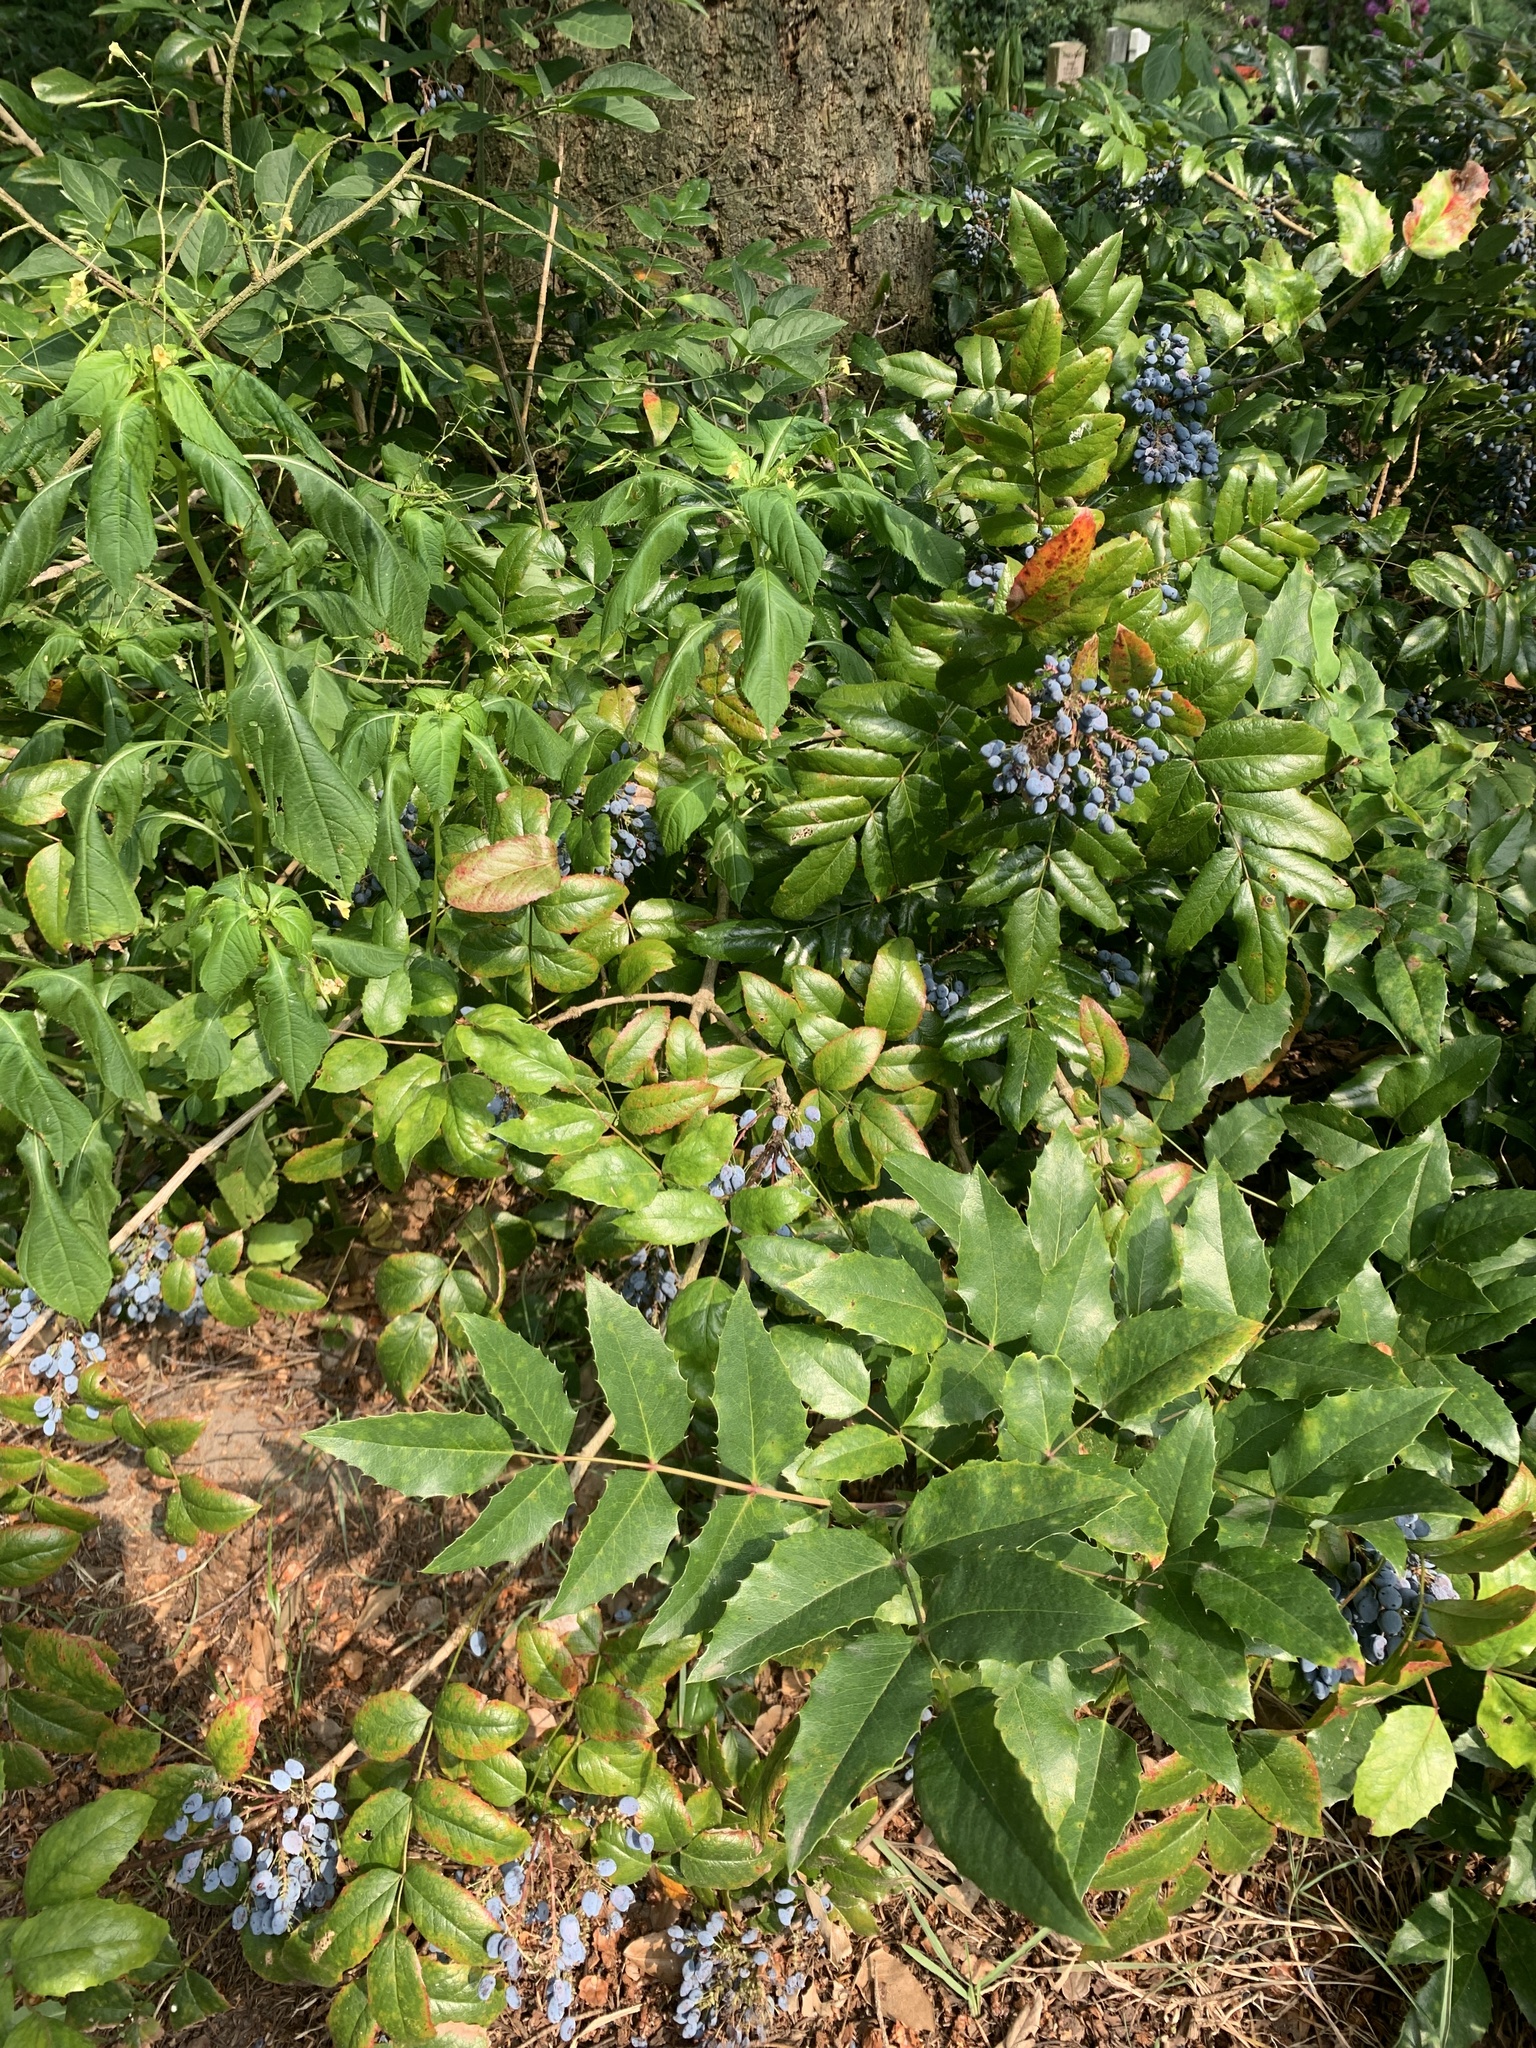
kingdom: Plantae
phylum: Tracheophyta
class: Magnoliopsida
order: Ranunculales
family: Berberidaceae
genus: Mahonia
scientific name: Mahonia aquifolium
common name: Oregon-grape
